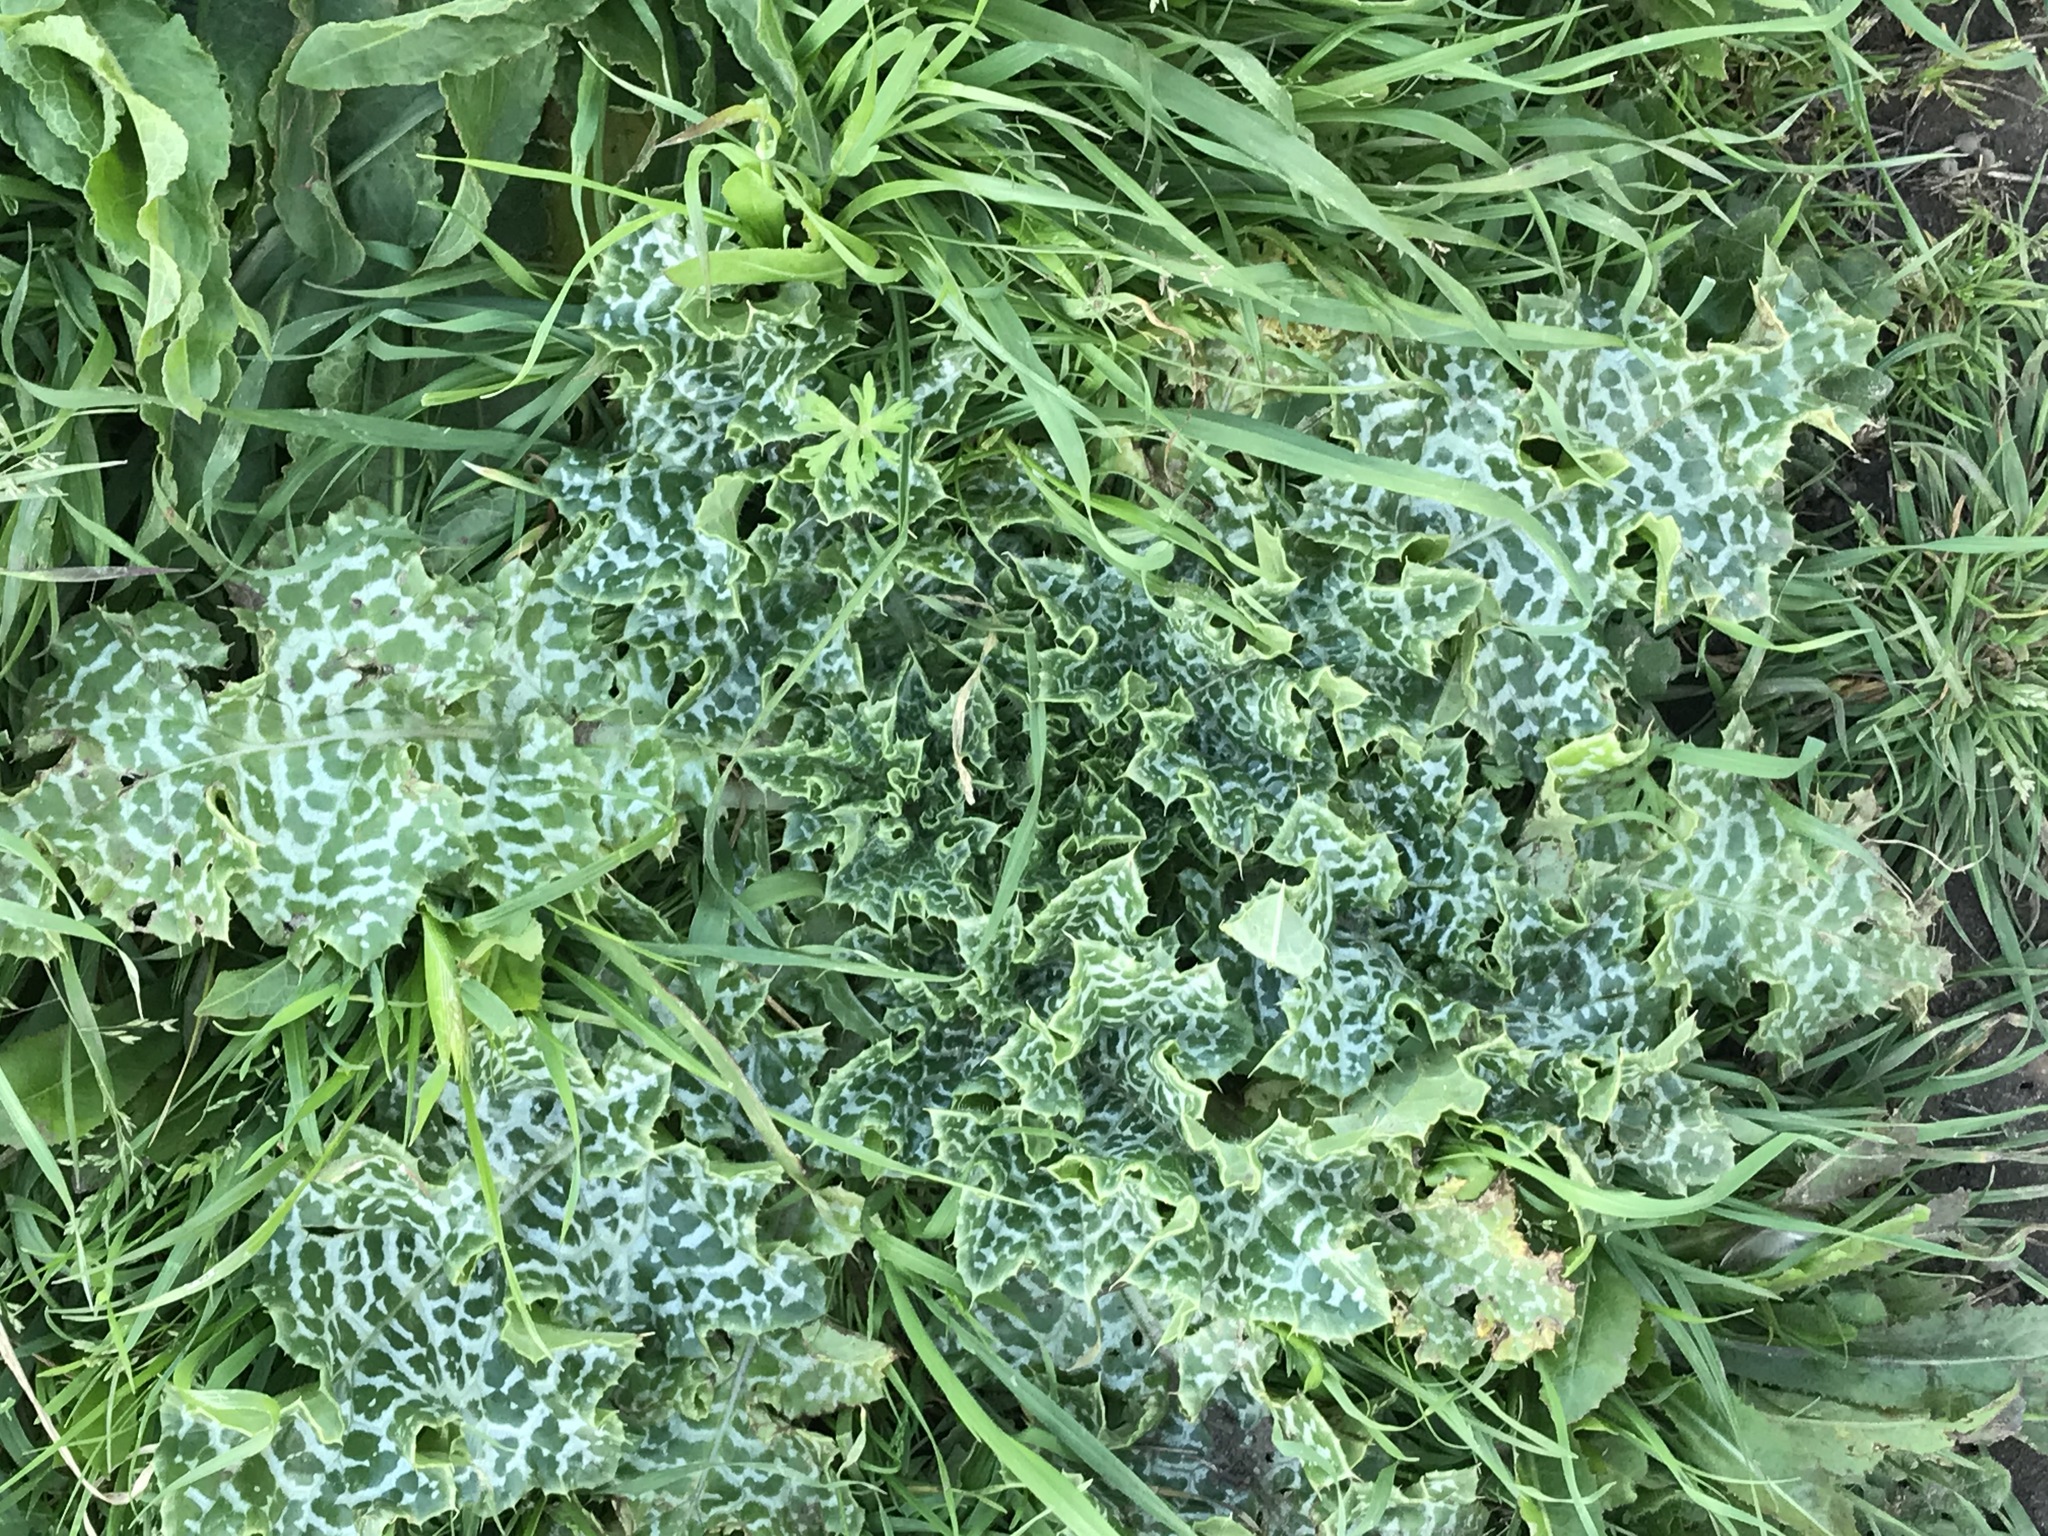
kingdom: Plantae
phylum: Tracheophyta
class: Magnoliopsida
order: Asterales
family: Asteraceae
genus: Silybum
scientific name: Silybum marianum
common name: Milk thistle
